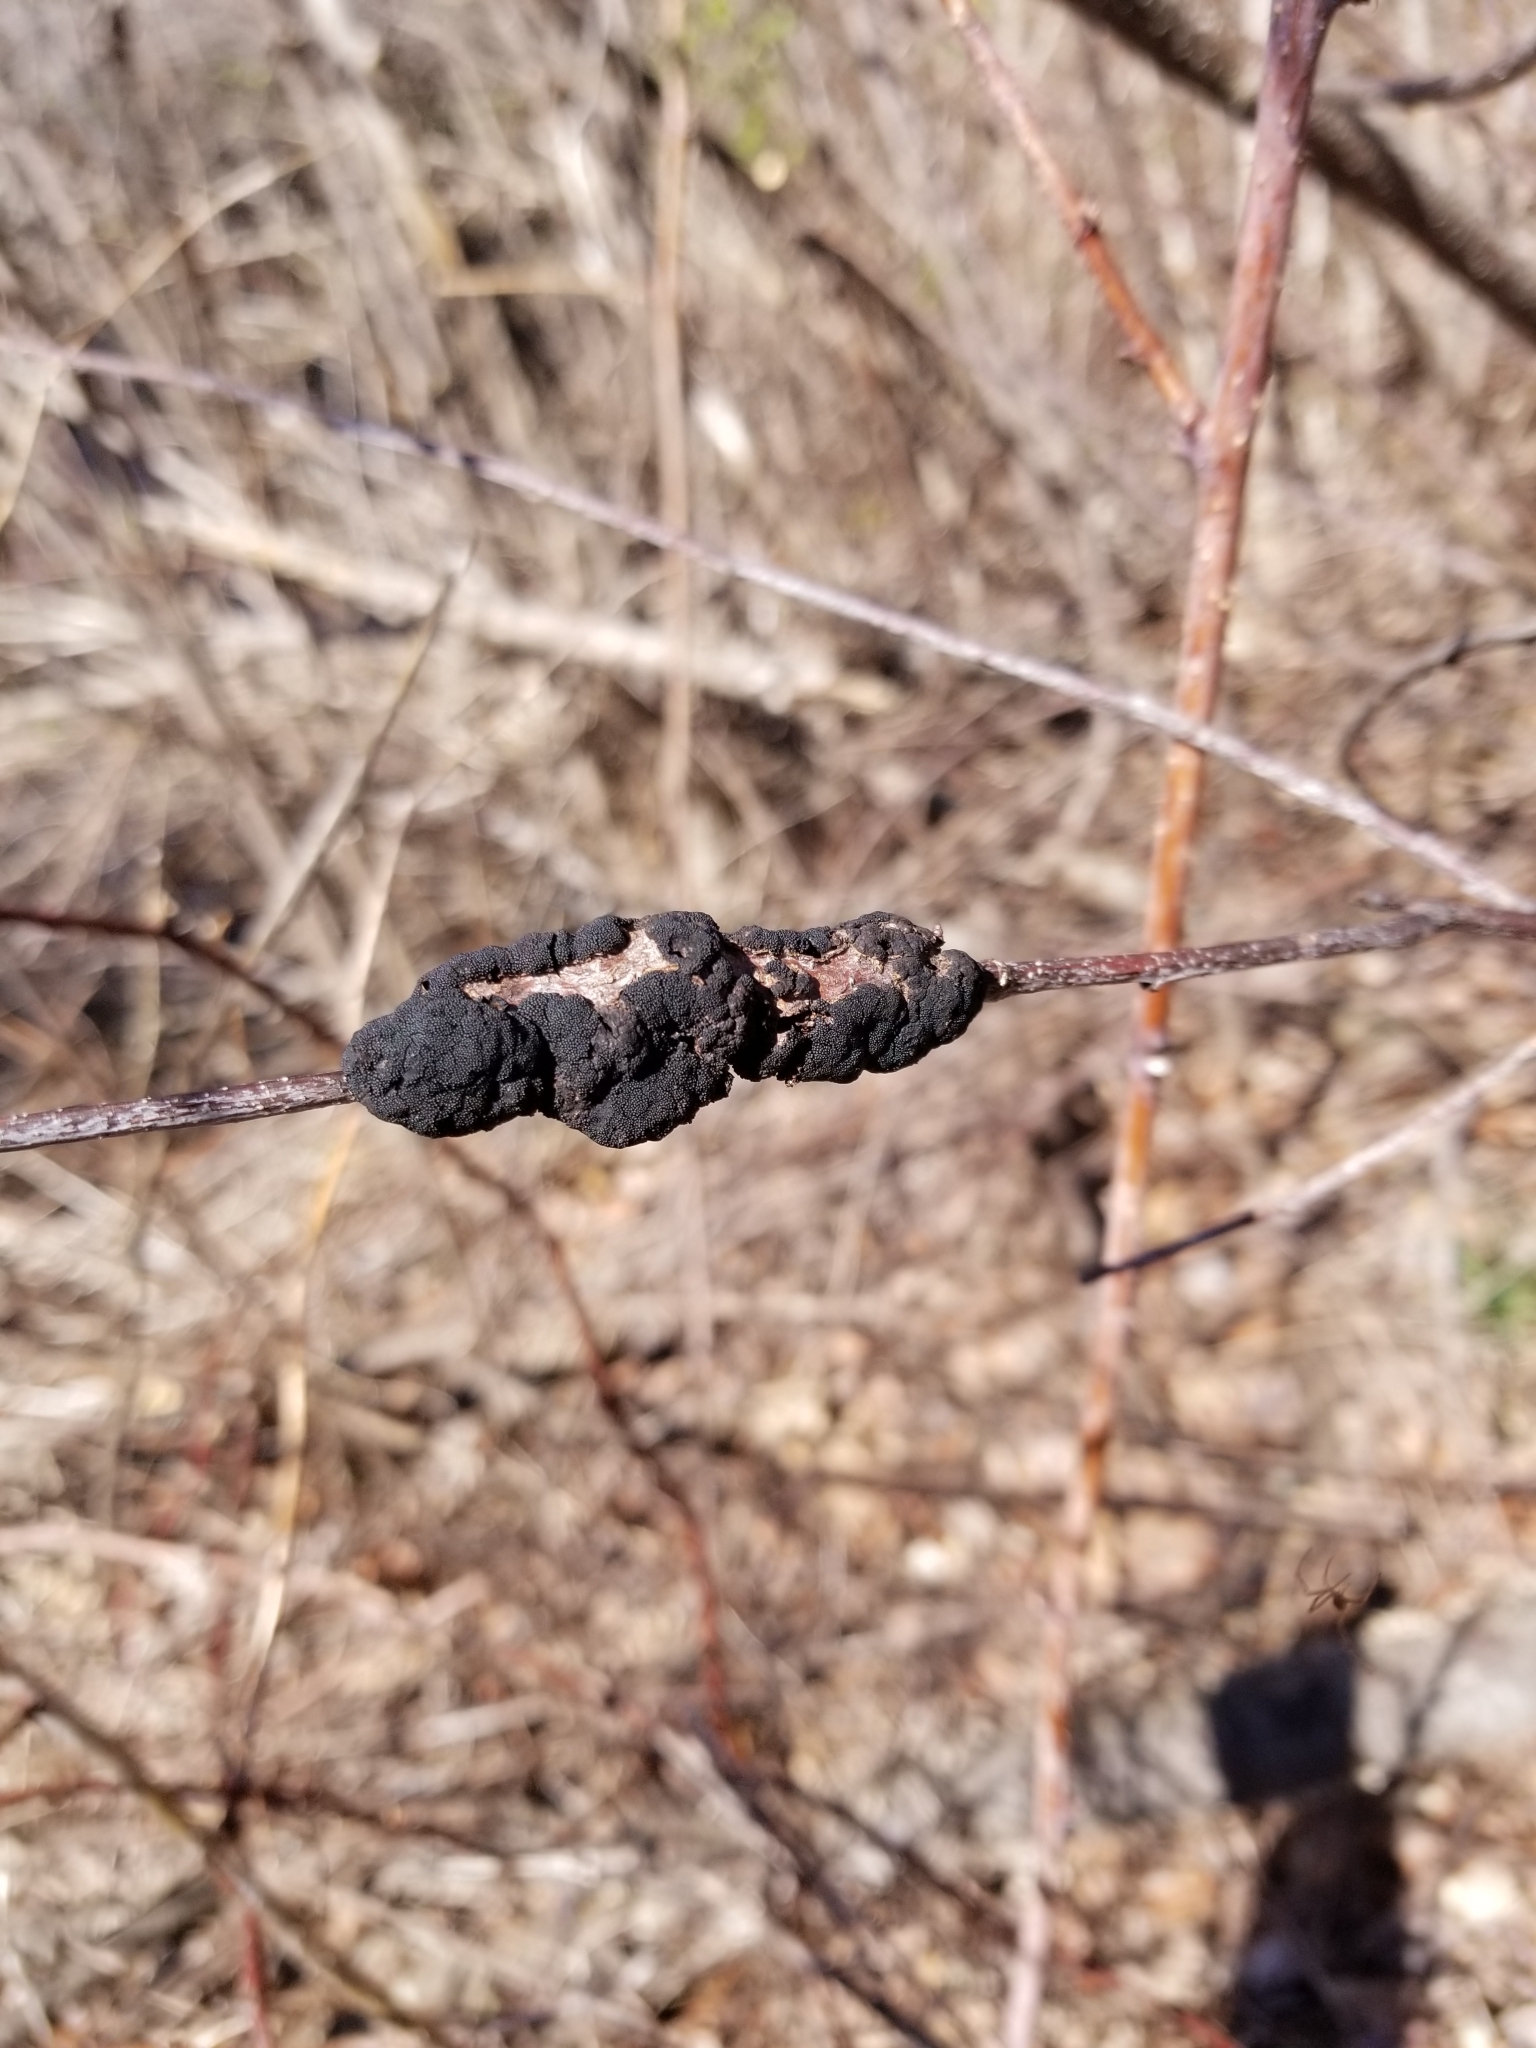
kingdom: Fungi
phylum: Ascomycota
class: Dothideomycetes
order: Venturiales
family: Venturiaceae
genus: Apiosporina
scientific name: Apiosporina morbosa
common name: Black knot
